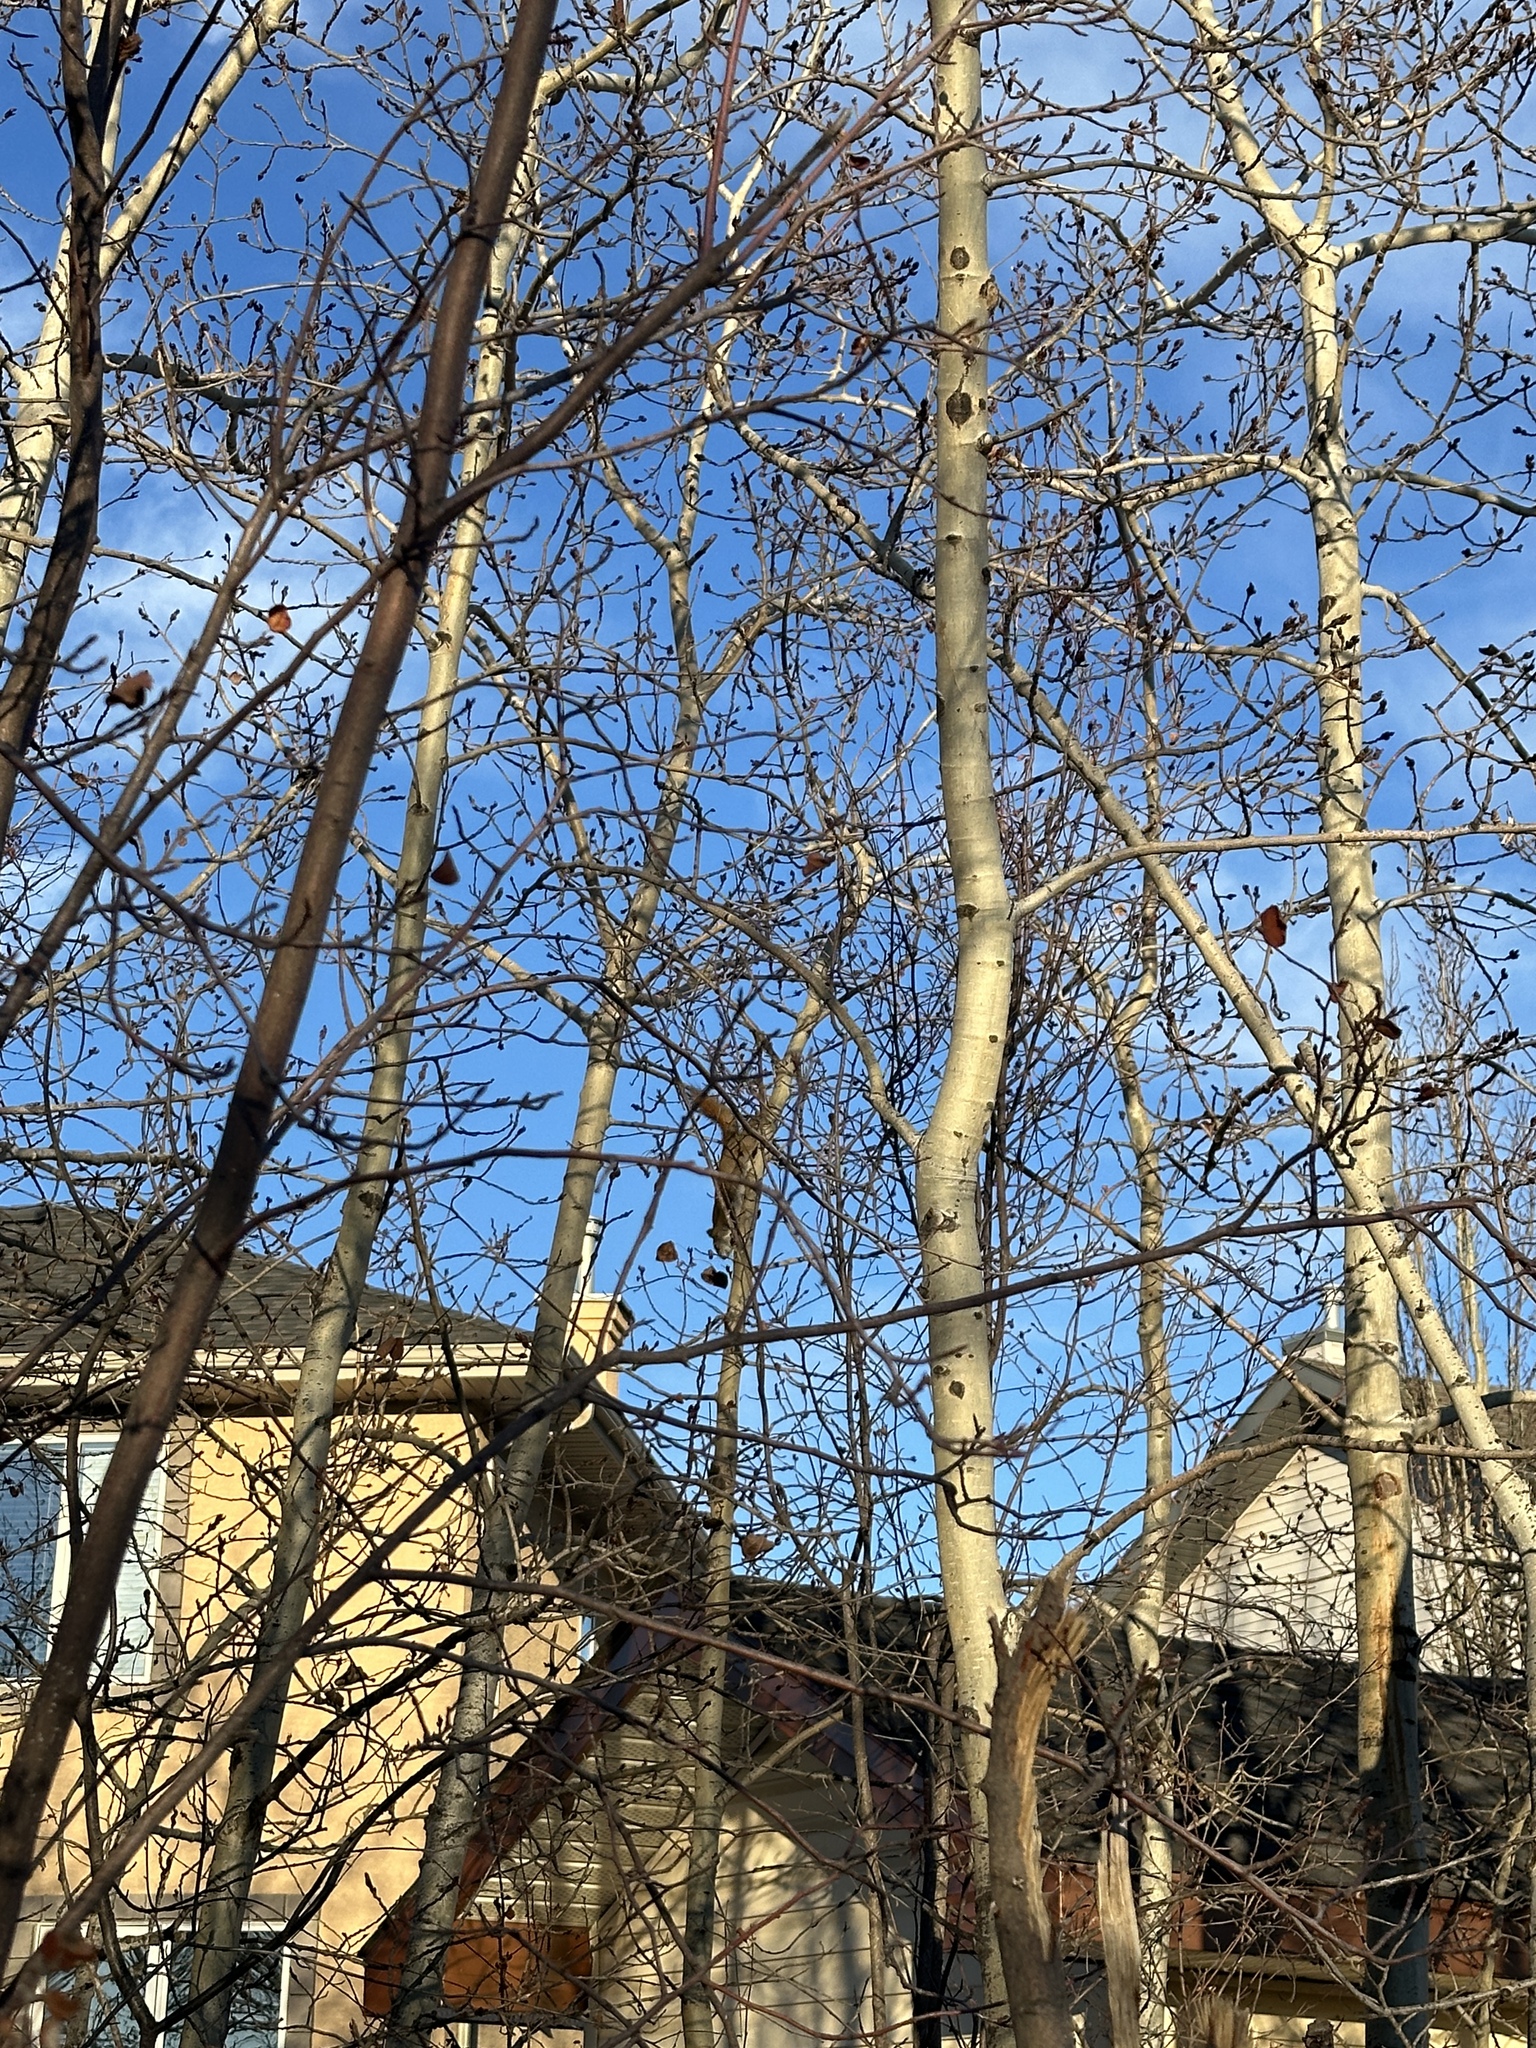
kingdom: Animalia
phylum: Chordata
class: Mammalia
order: Rodentia
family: Sciuridae
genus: Tamiasciurus
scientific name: Tamiasciurus hudsonicus
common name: Red squirrel
